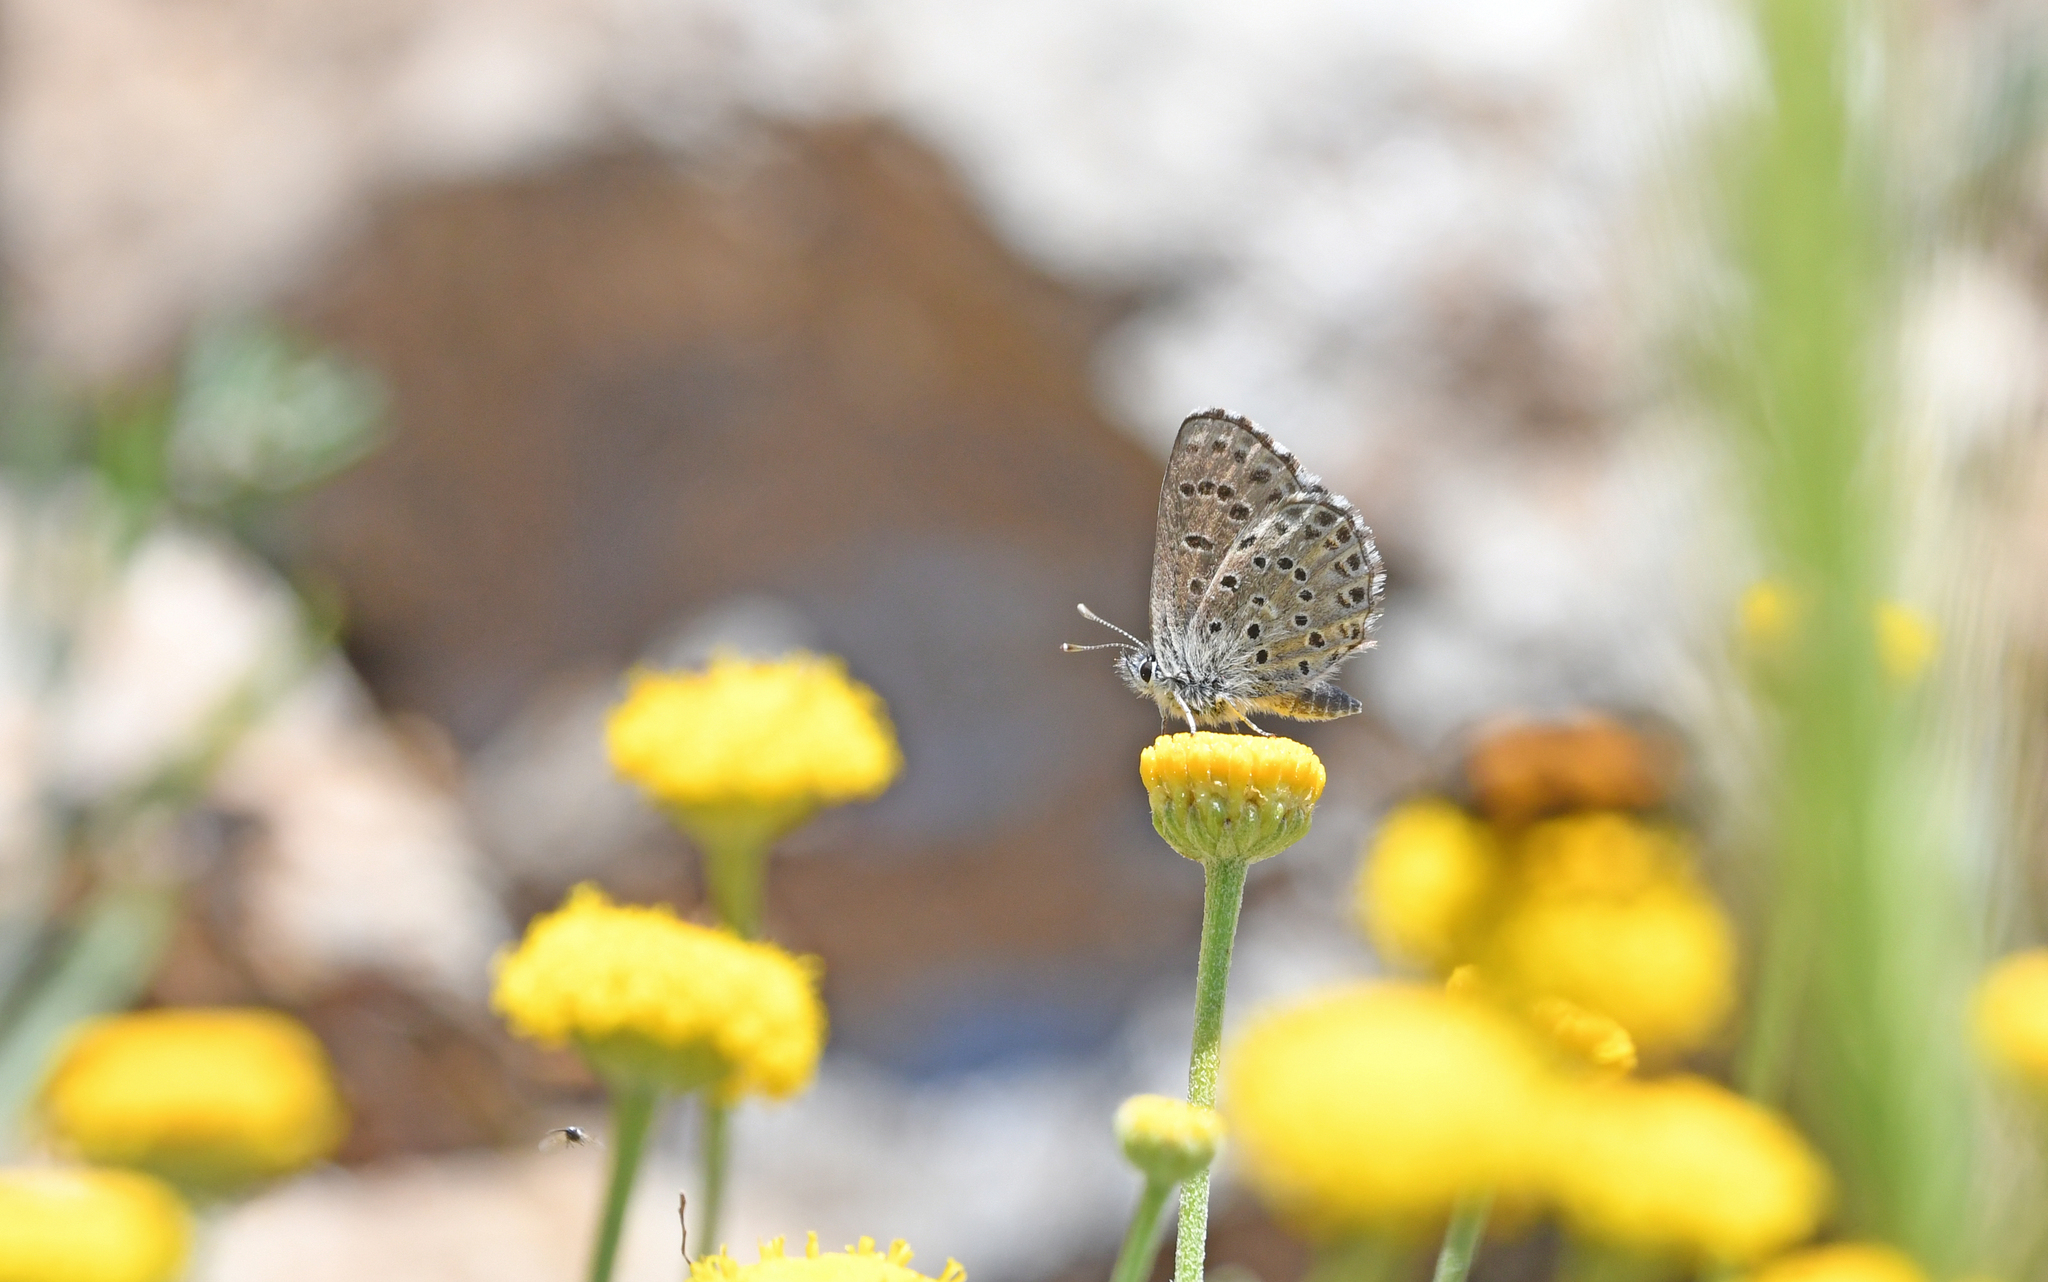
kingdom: Animalia
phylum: Arthropoda
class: Insecta
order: Lepidoptera
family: Lycaenidae
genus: Pseudophilotes
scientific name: Pseudophilotes barbagiae
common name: Sardinian blue
